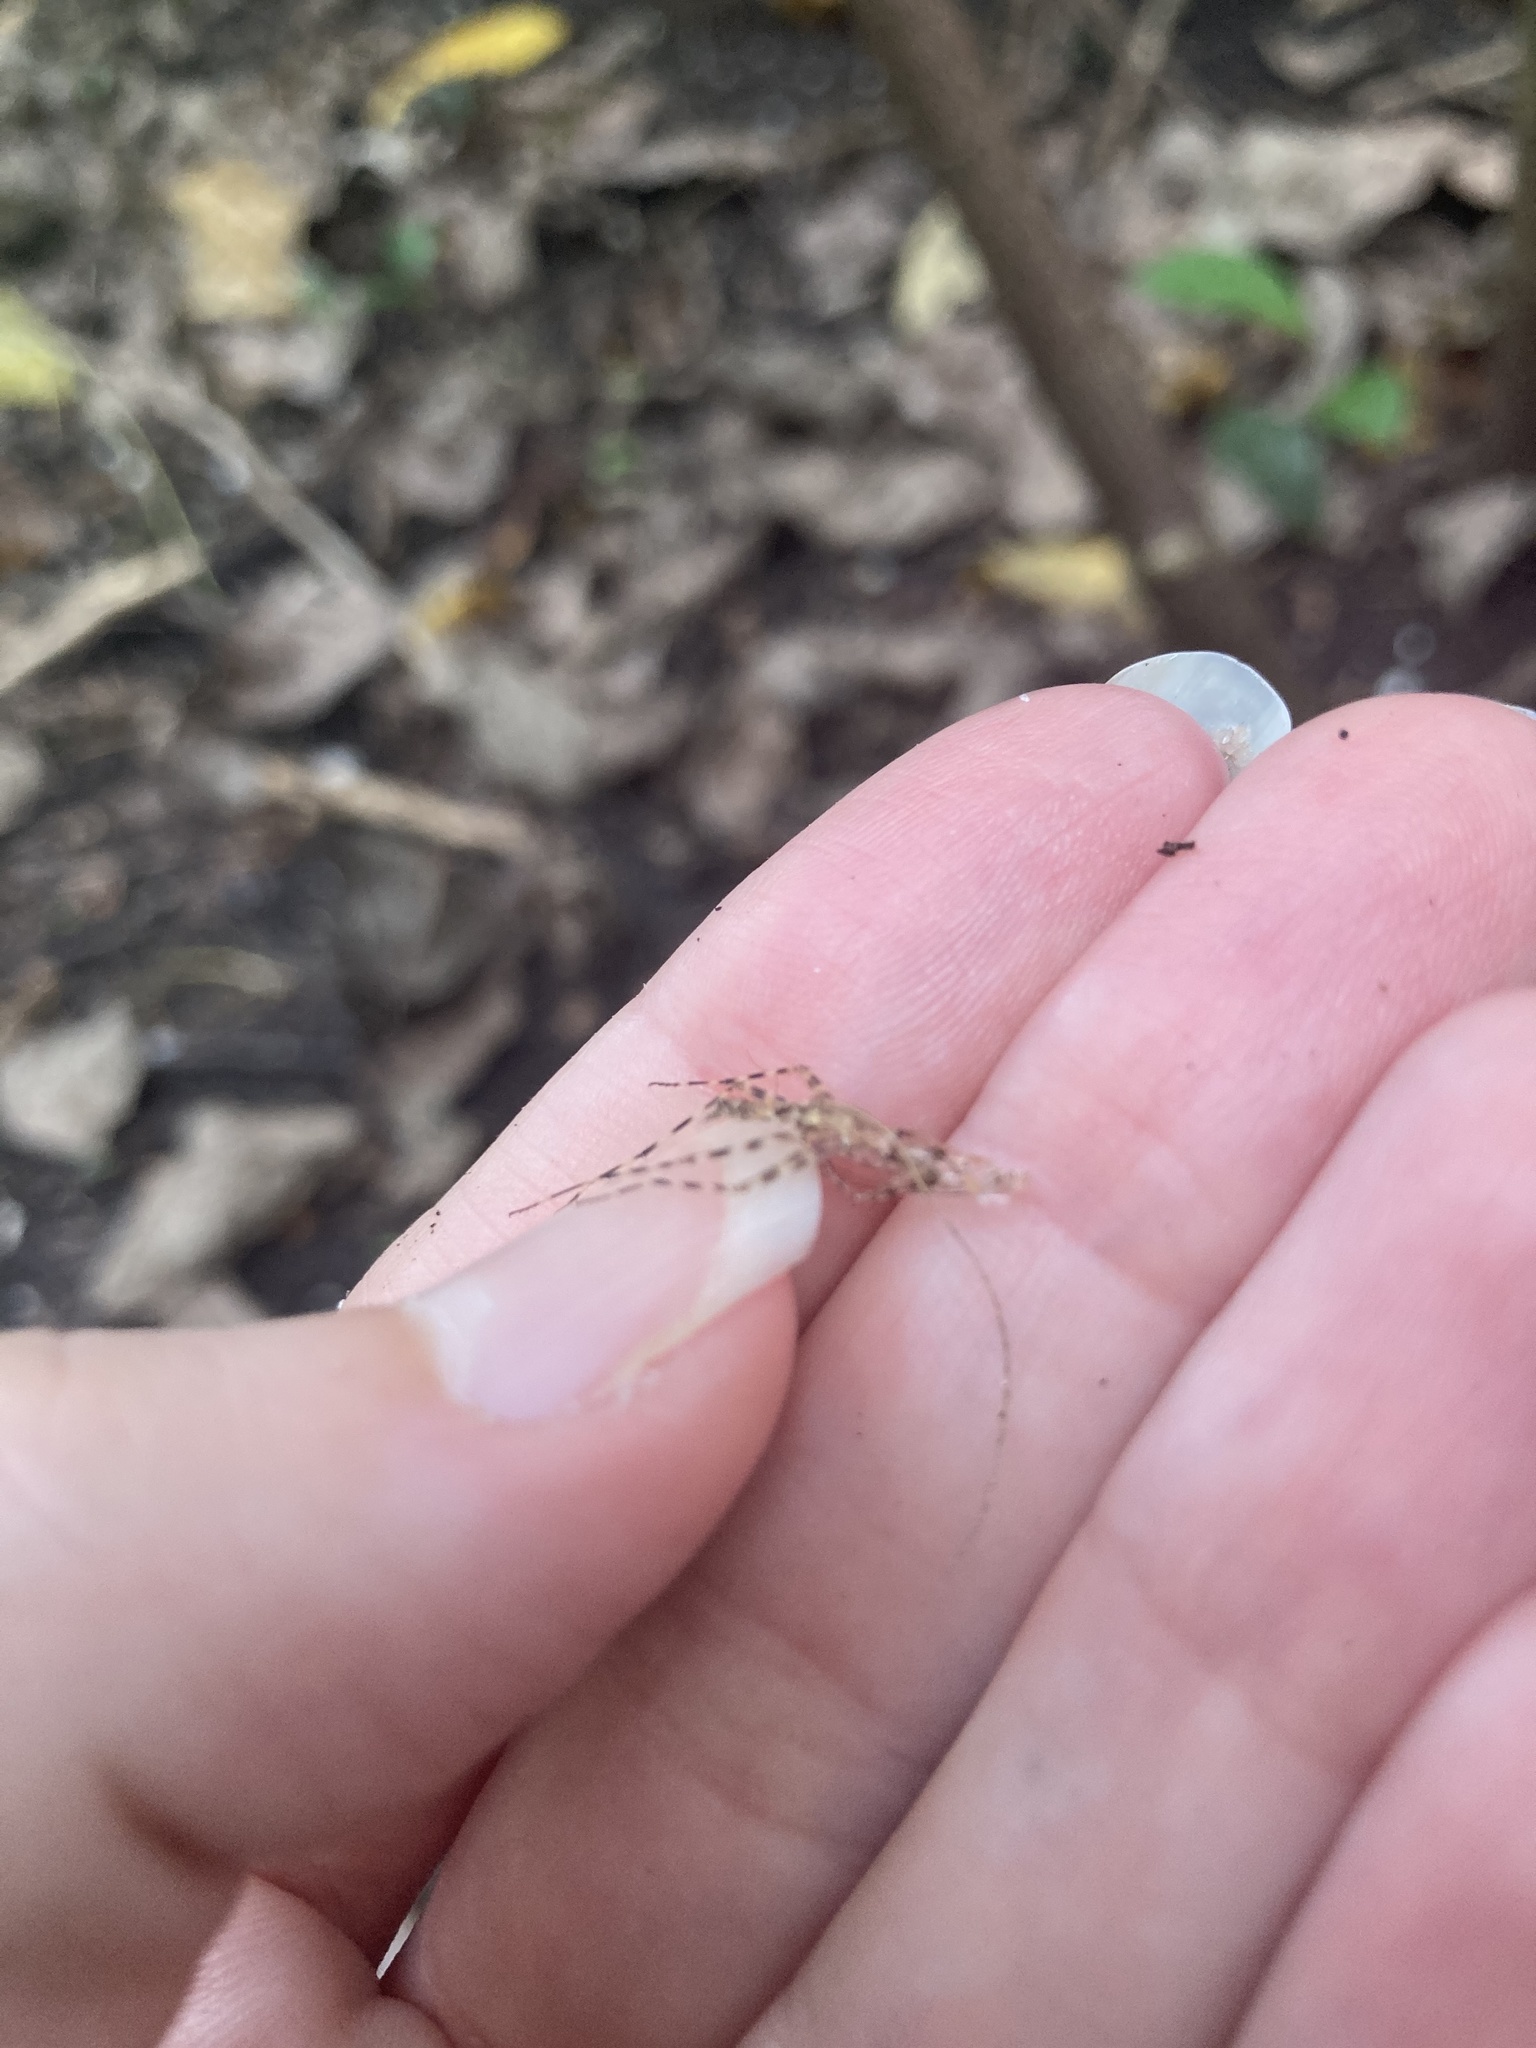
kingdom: Animalia
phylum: Arthropoda
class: Insecta
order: Mantodea
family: Liturgusidae
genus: Liturgusa
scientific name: Liturgusa maya
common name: Mantis
